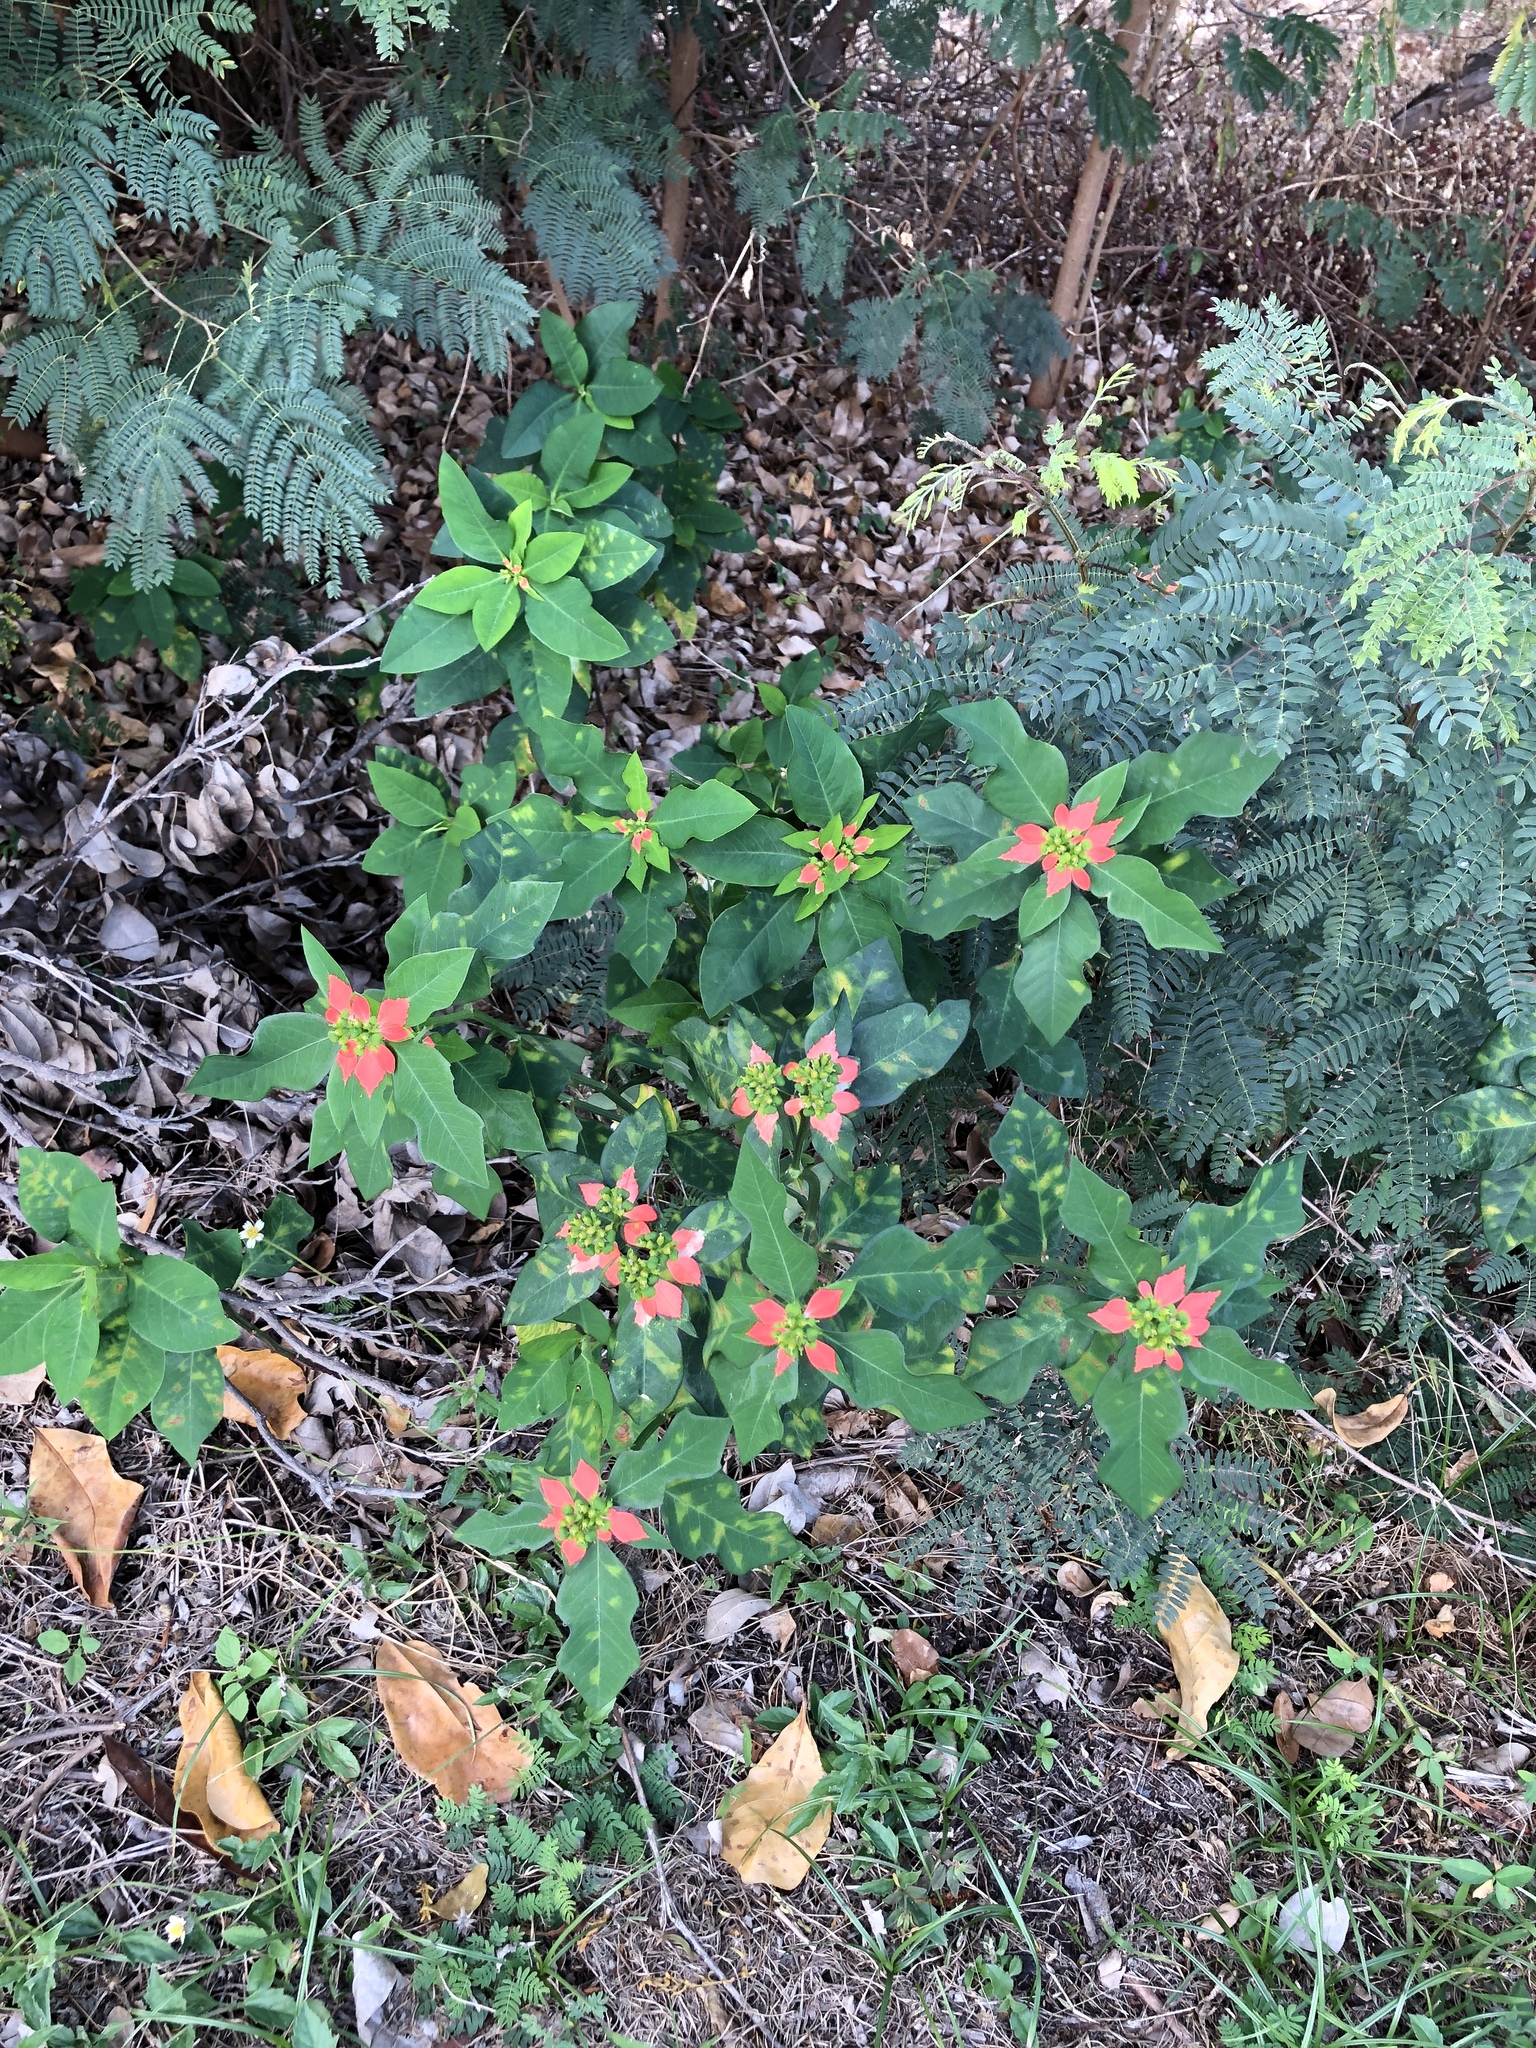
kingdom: Plantae
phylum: Tracheophyta
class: Magnoliopsida
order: Malpighiales
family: Euphorbiaceae
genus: Euphorbia
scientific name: Euphorbia heterophylla
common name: Mexican fireplant
